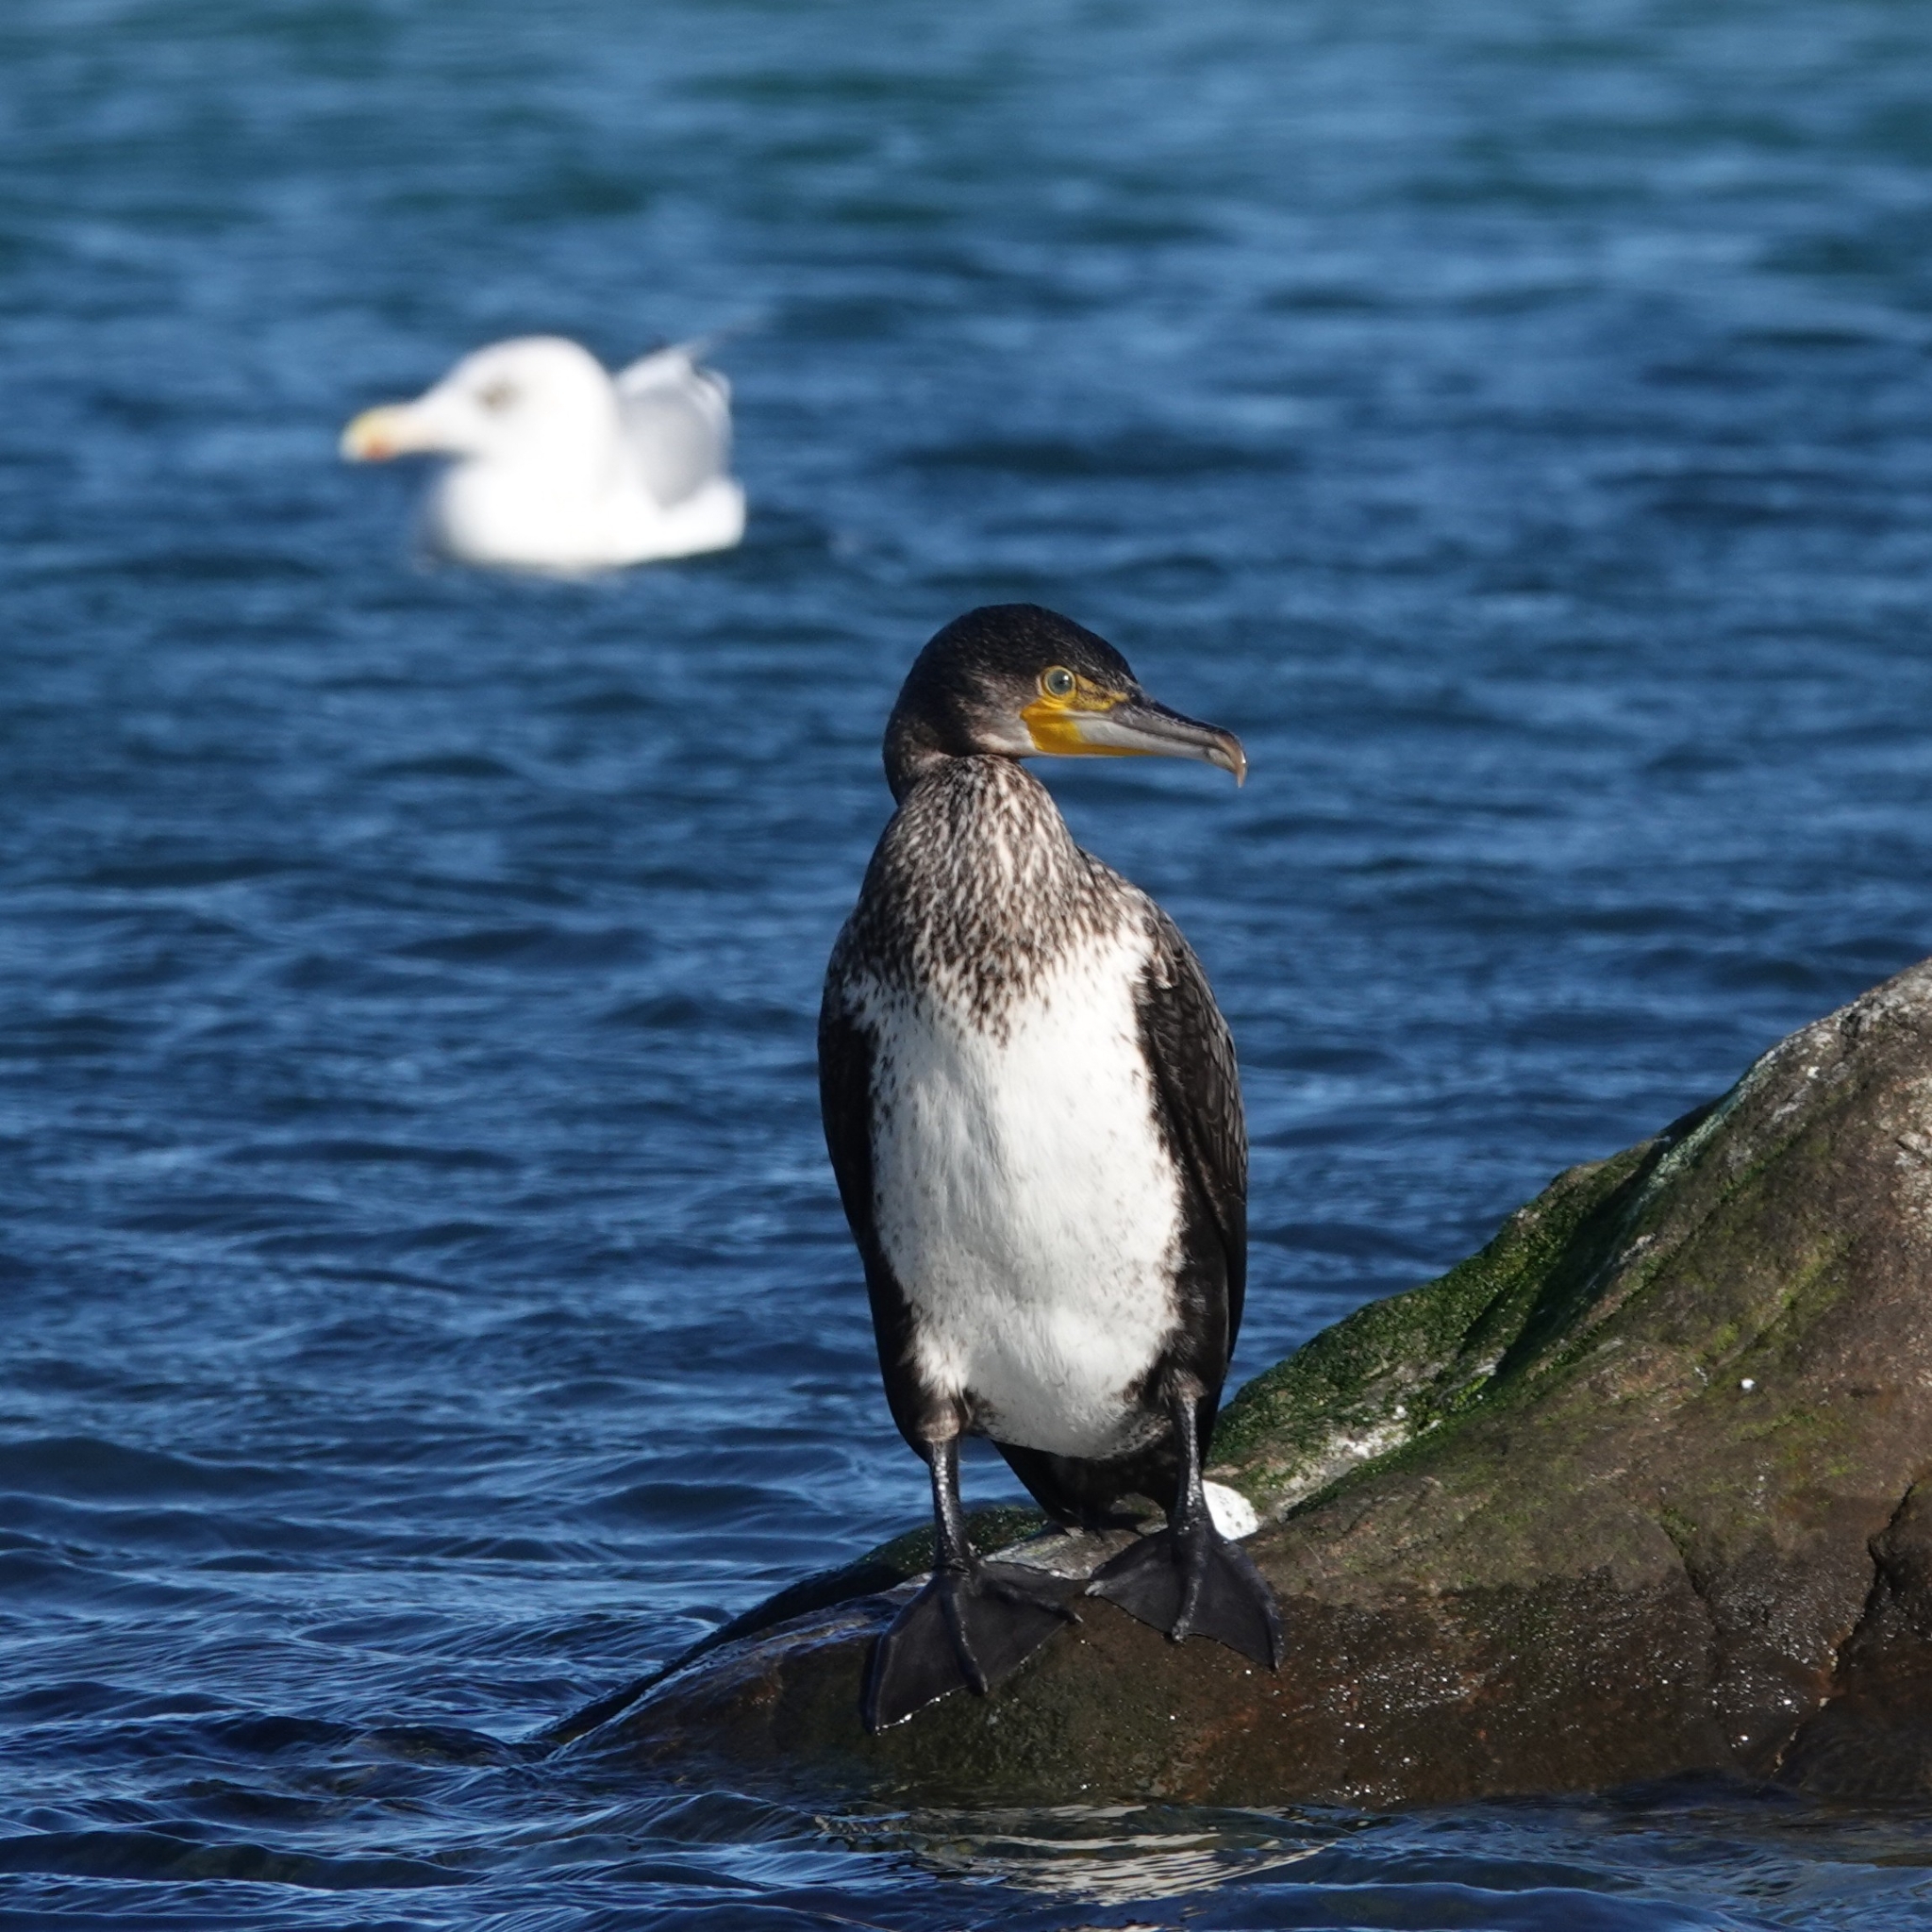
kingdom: Animalia
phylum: Chordata
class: Aves
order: Suliformes
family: Phalacrocoracidae
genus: Phalacrocorax
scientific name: Phalacrocorax carbo
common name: Great cormorant
